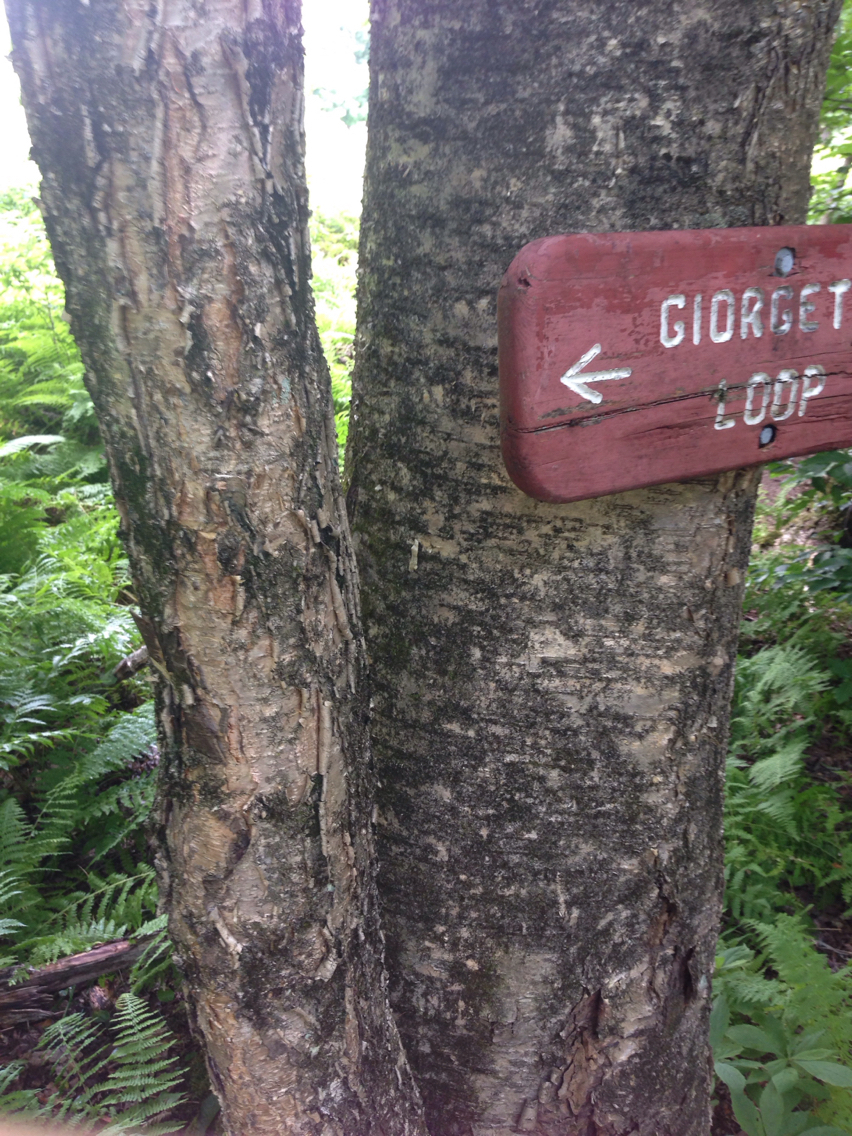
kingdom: Plantae
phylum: Tracheophyta
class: Magnoliopsida
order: Fagales
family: Betulaceae
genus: Betula
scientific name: Betula alleghaniensis
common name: Yellow birch
